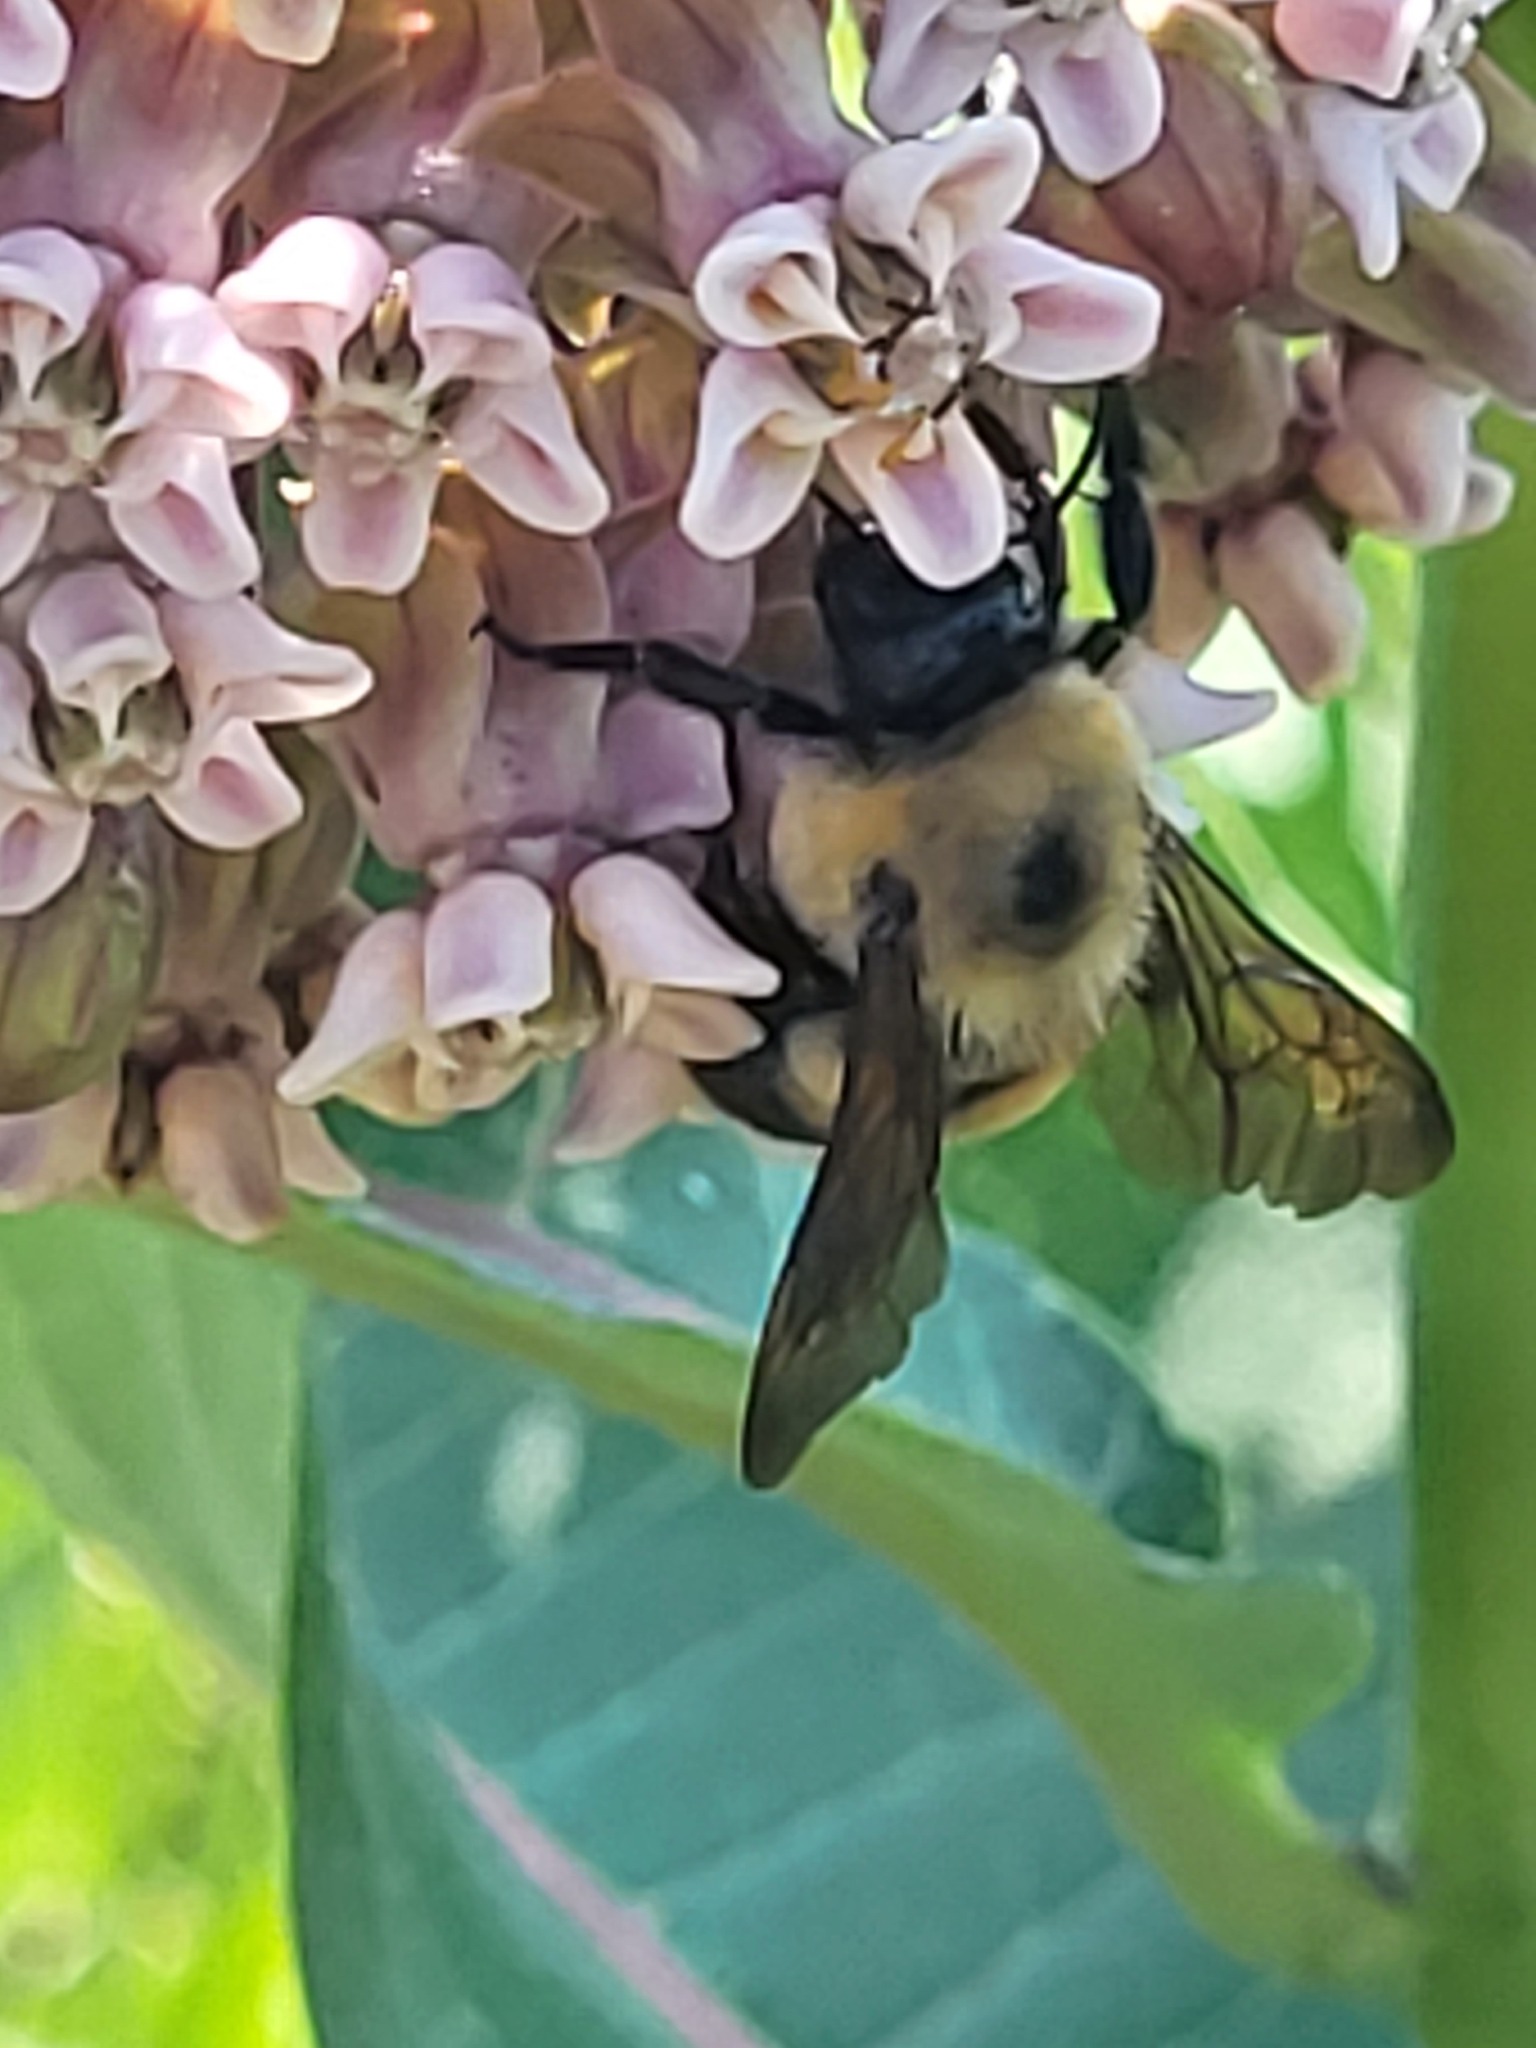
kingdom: Animalia
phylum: Arthropoda
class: Insecta
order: Hymenoptera
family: Apidae
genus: Bombus
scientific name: Bombus griseocollis
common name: Brown-belted bumble bee
